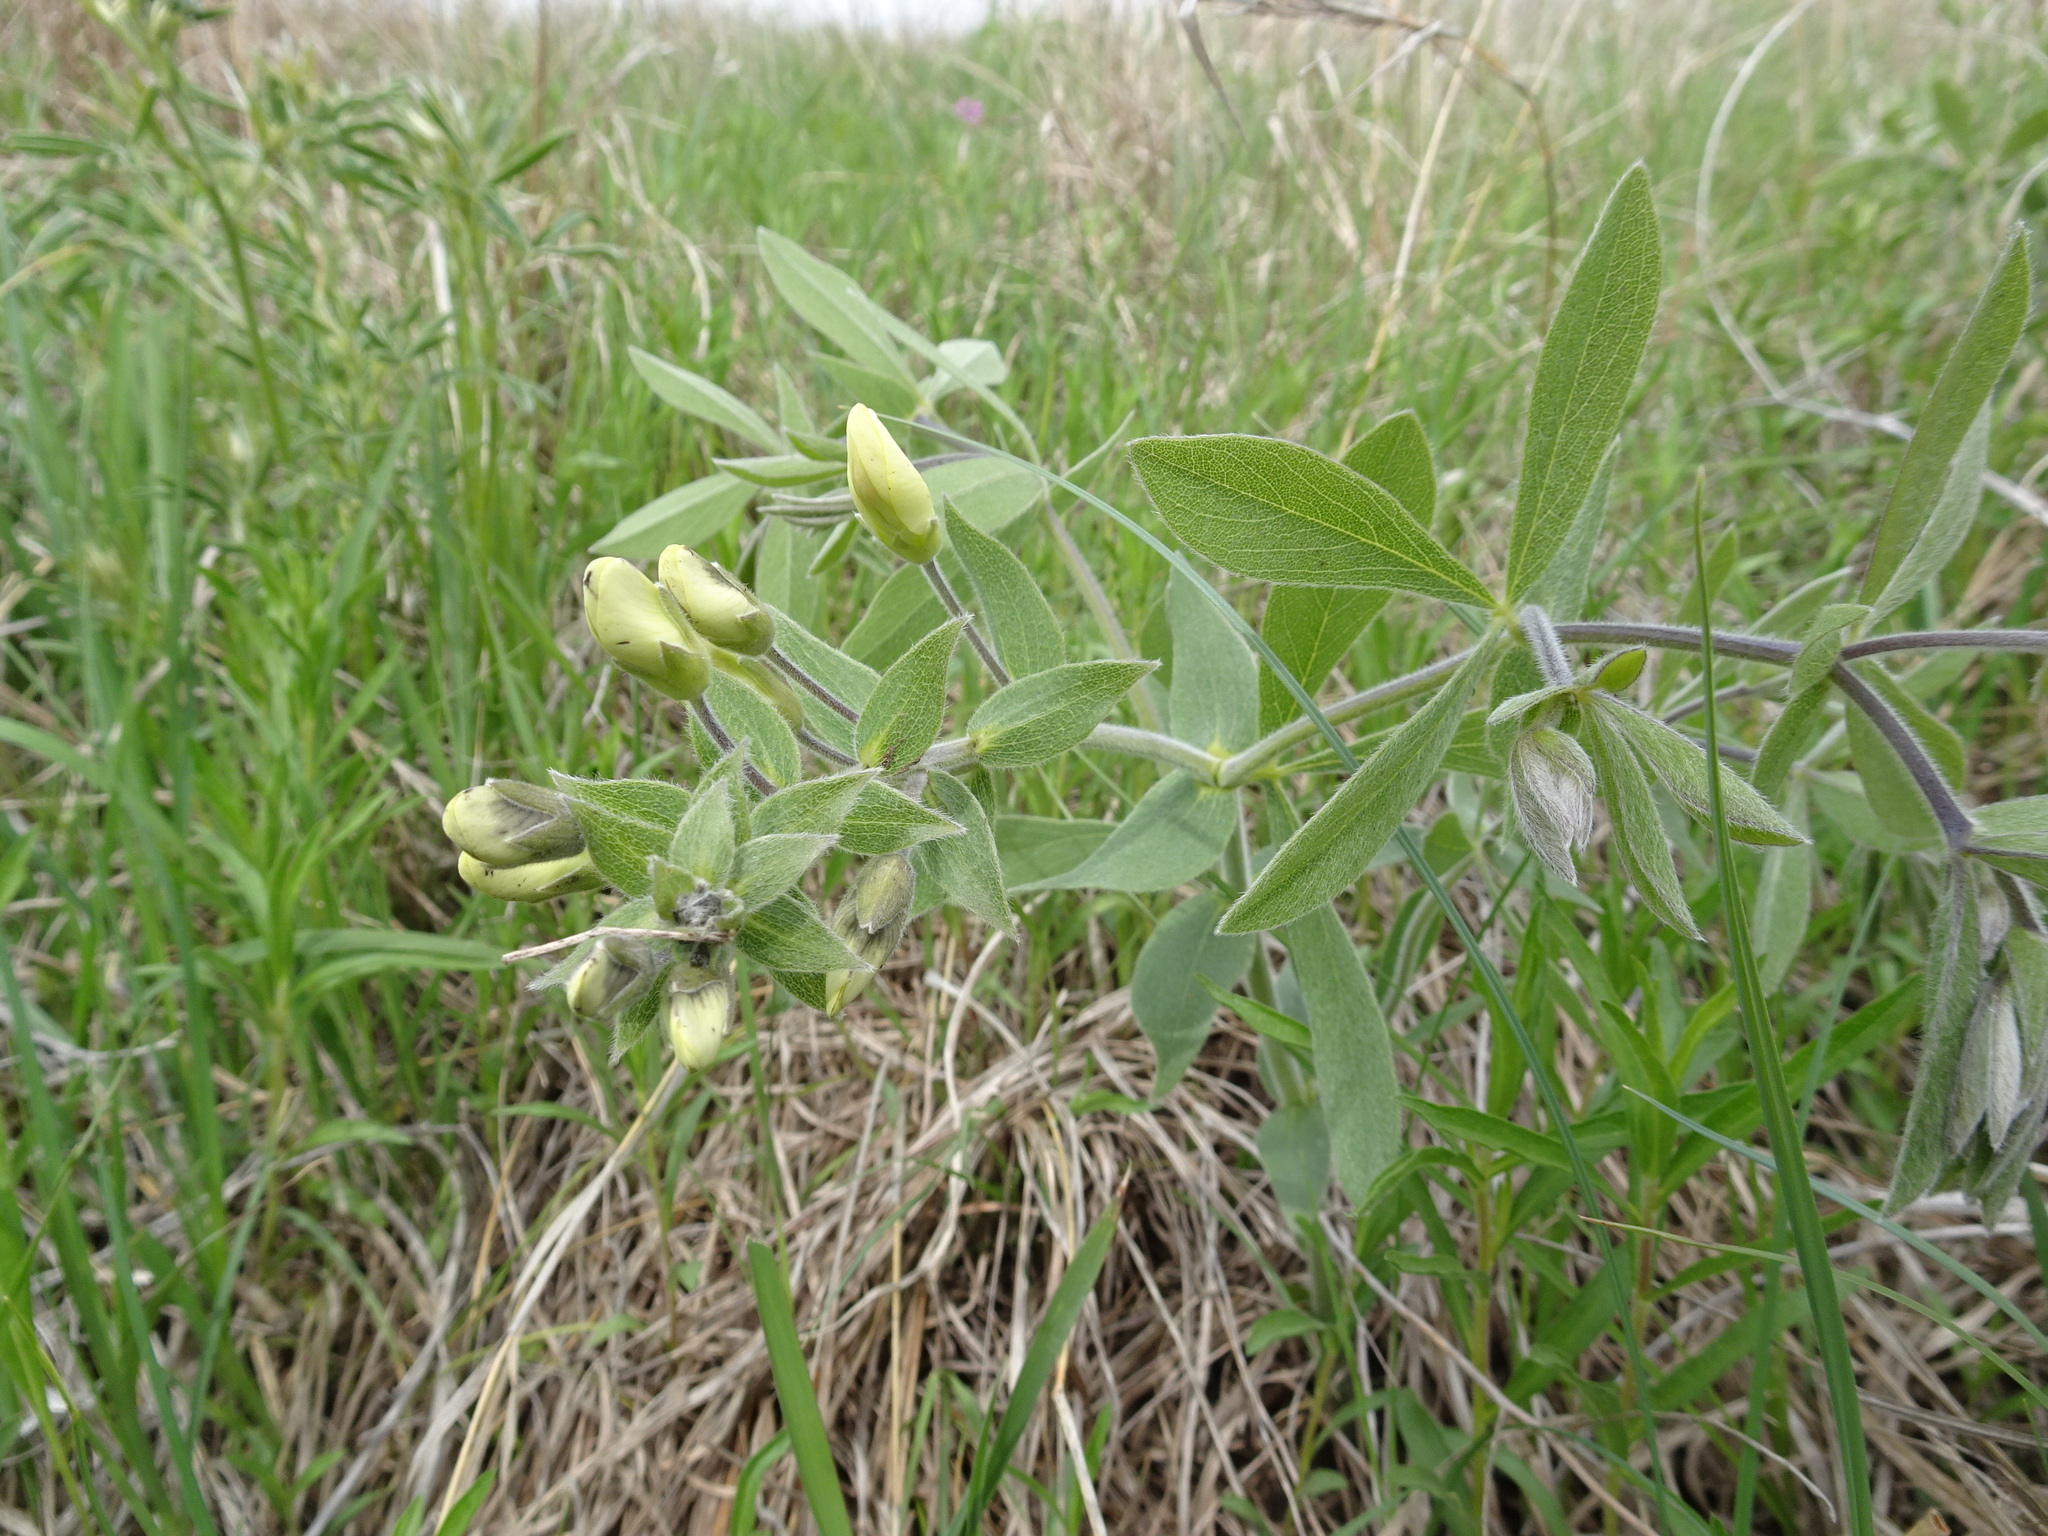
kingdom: Plantae
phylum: Tracheophyta
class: Magnoliopsida
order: Fabales
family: Fabaceae
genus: Baptisia
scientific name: Baptisia bracteata
